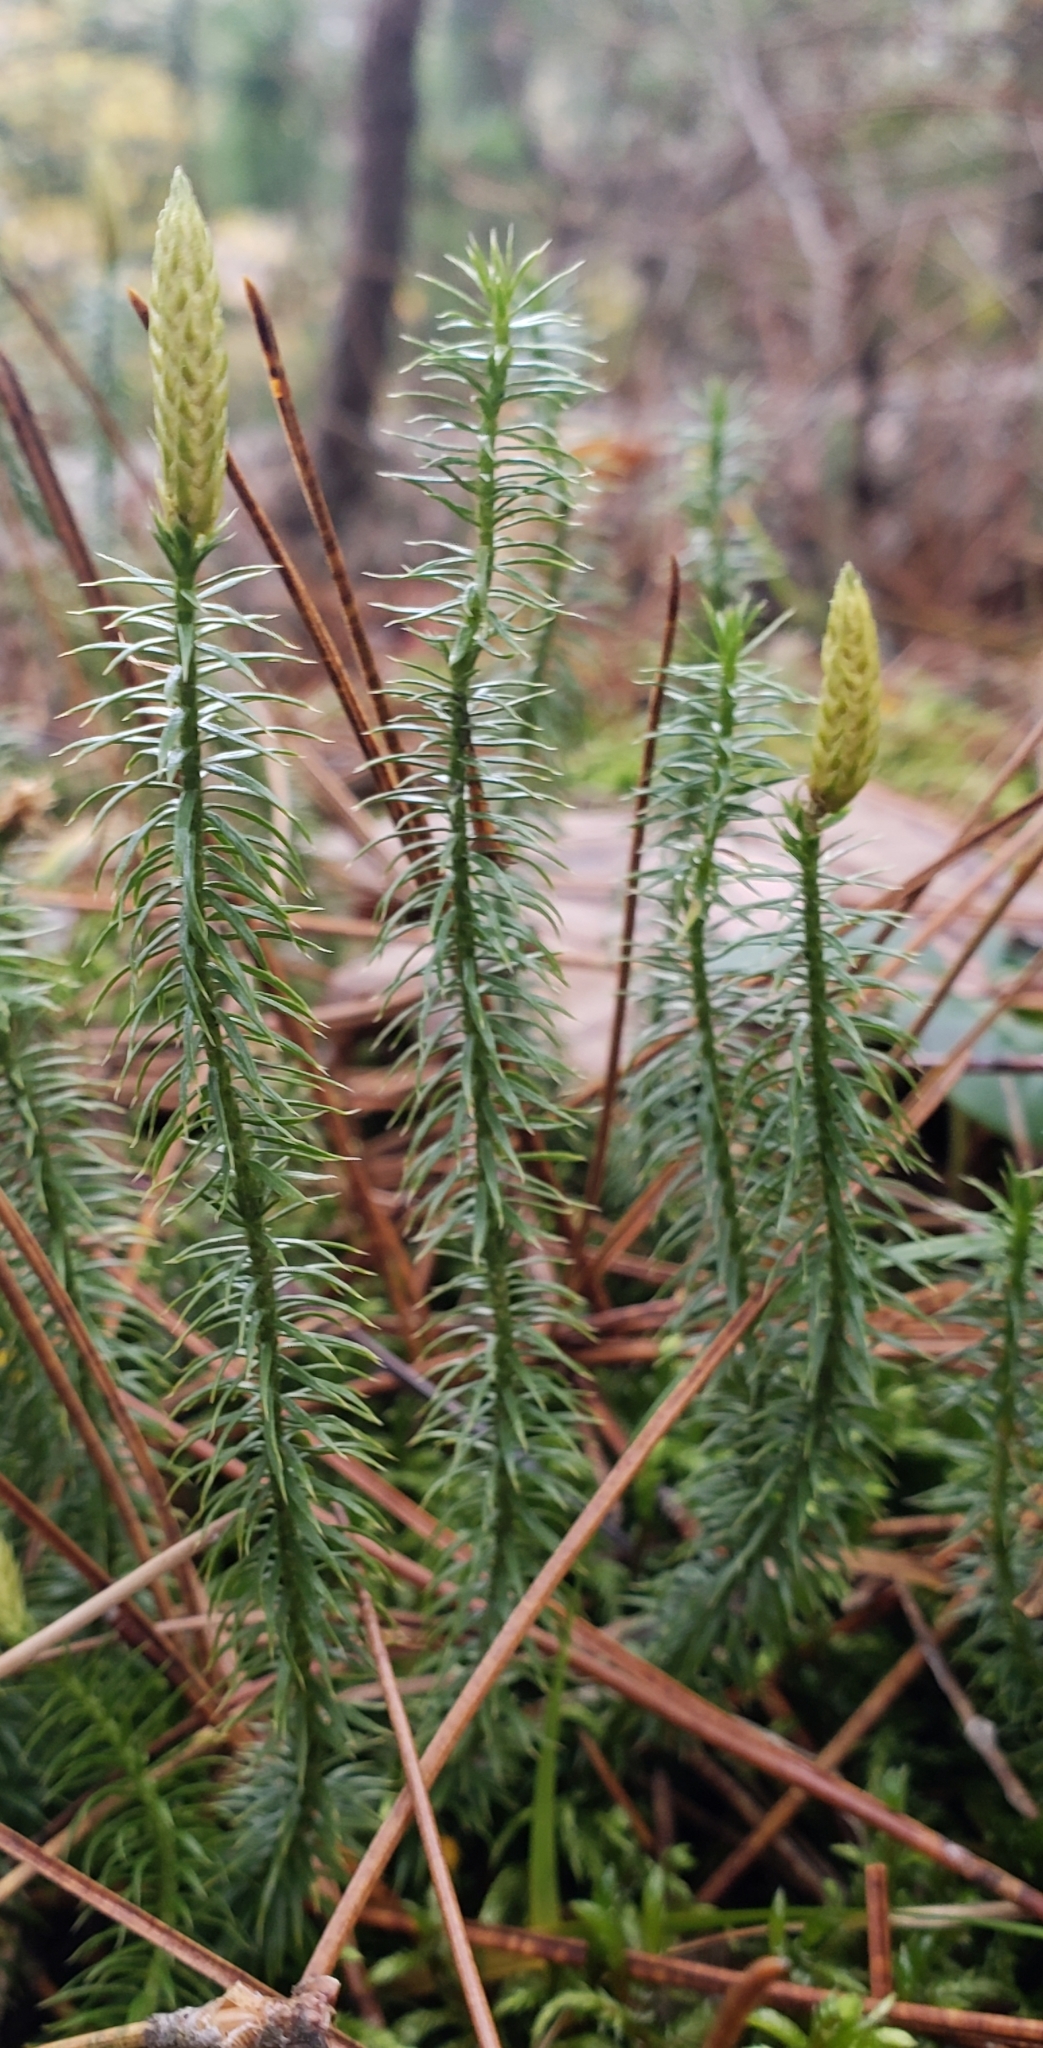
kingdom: Plantae
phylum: Tracheophyta
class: Lycopodiopsida
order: Lycopodiales
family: Lycopodiaceae
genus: Spinulum
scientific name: Spinulum annotinum
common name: Interrupted club-moss
